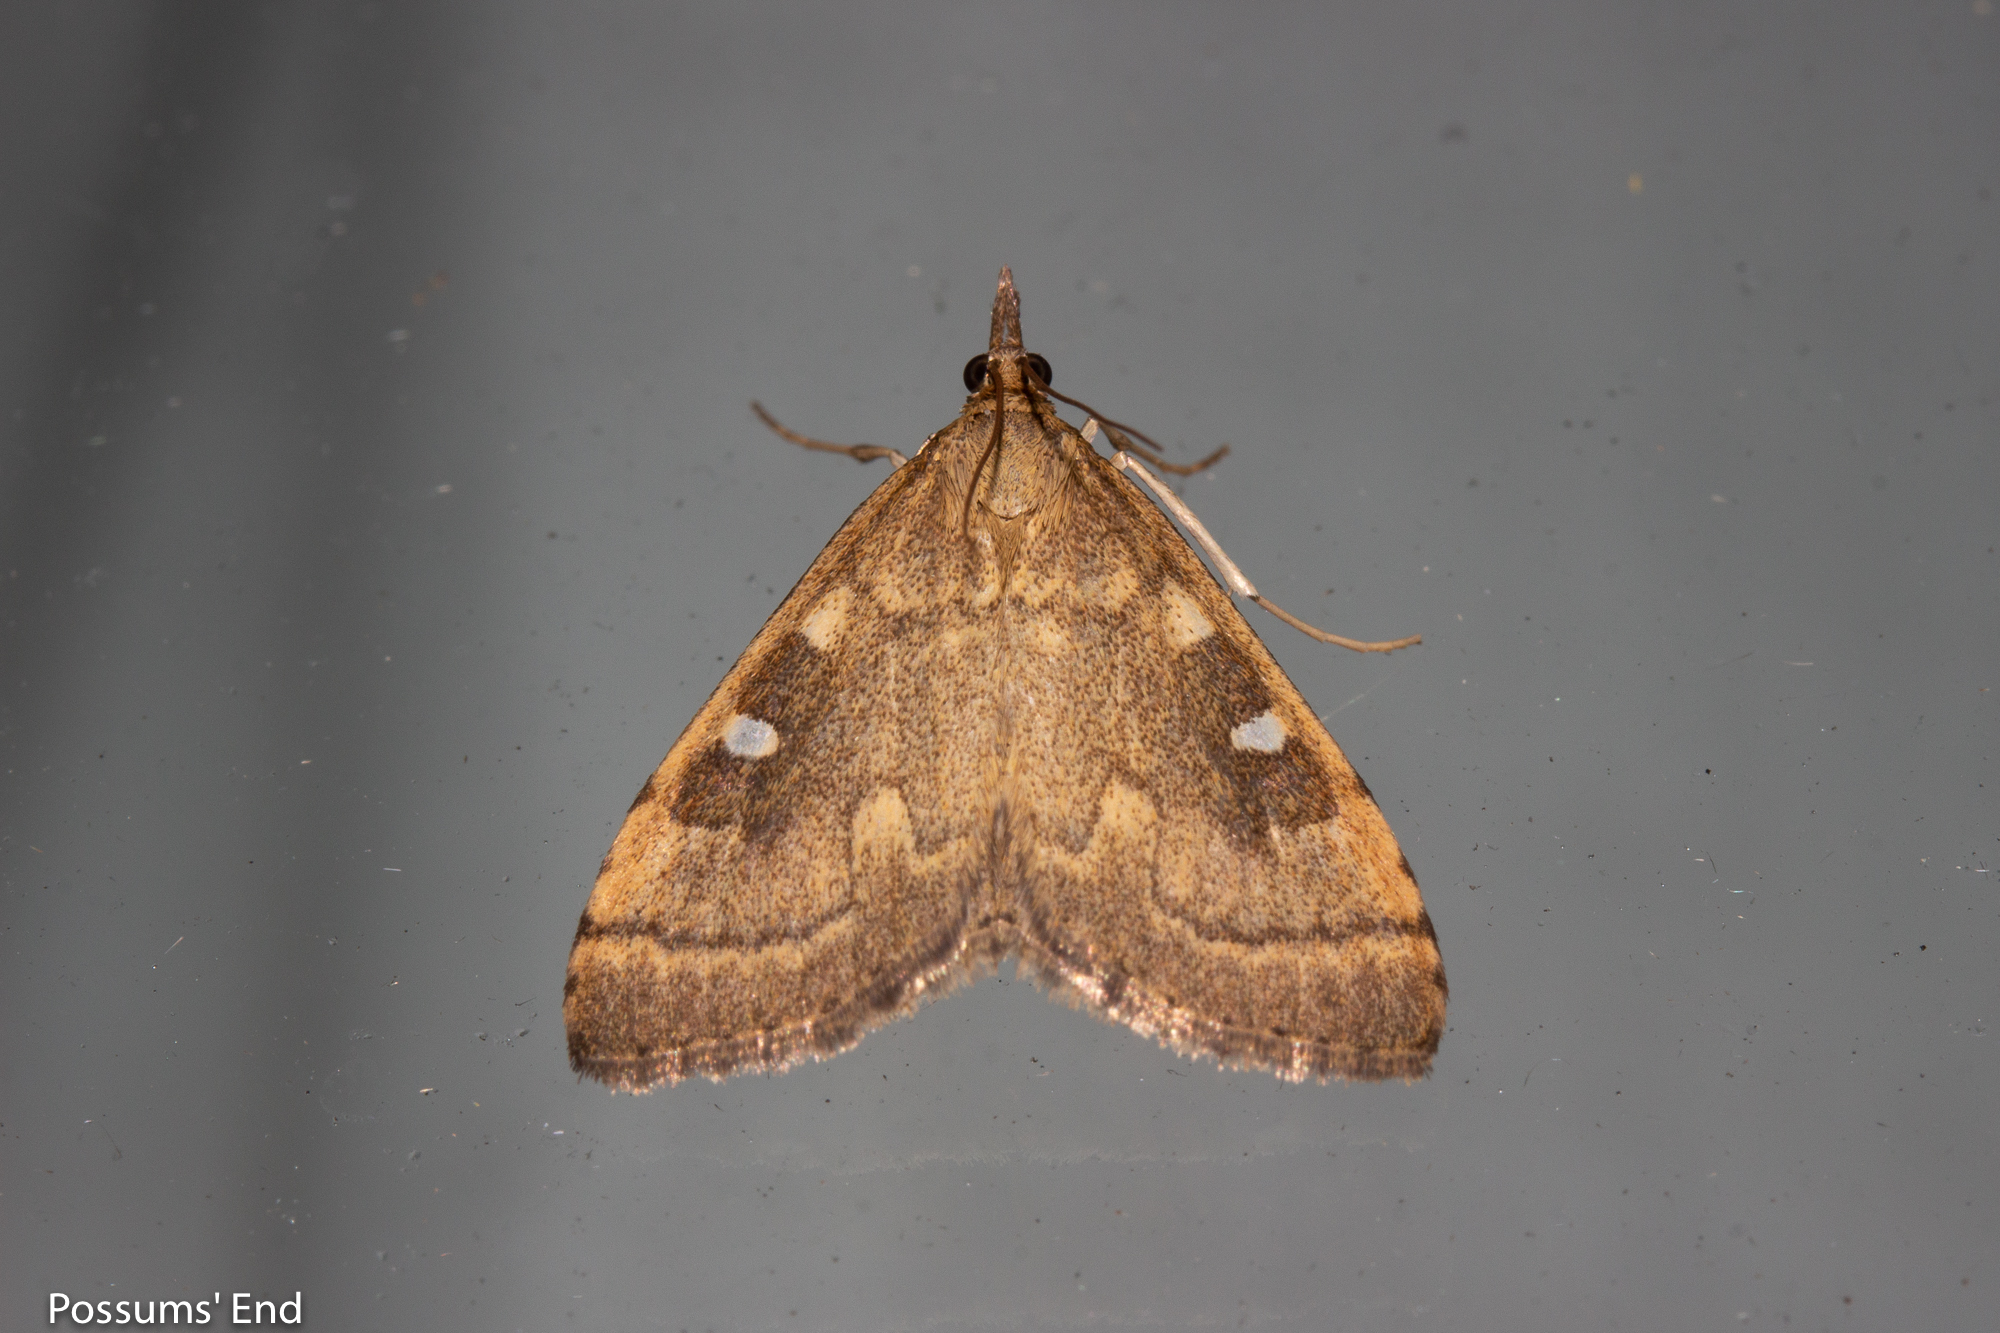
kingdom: Animalia
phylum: Arthropoda
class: Insecta
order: Lepidoptera
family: Crambidae
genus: Udea
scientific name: Udea Mnesictena marmarina
